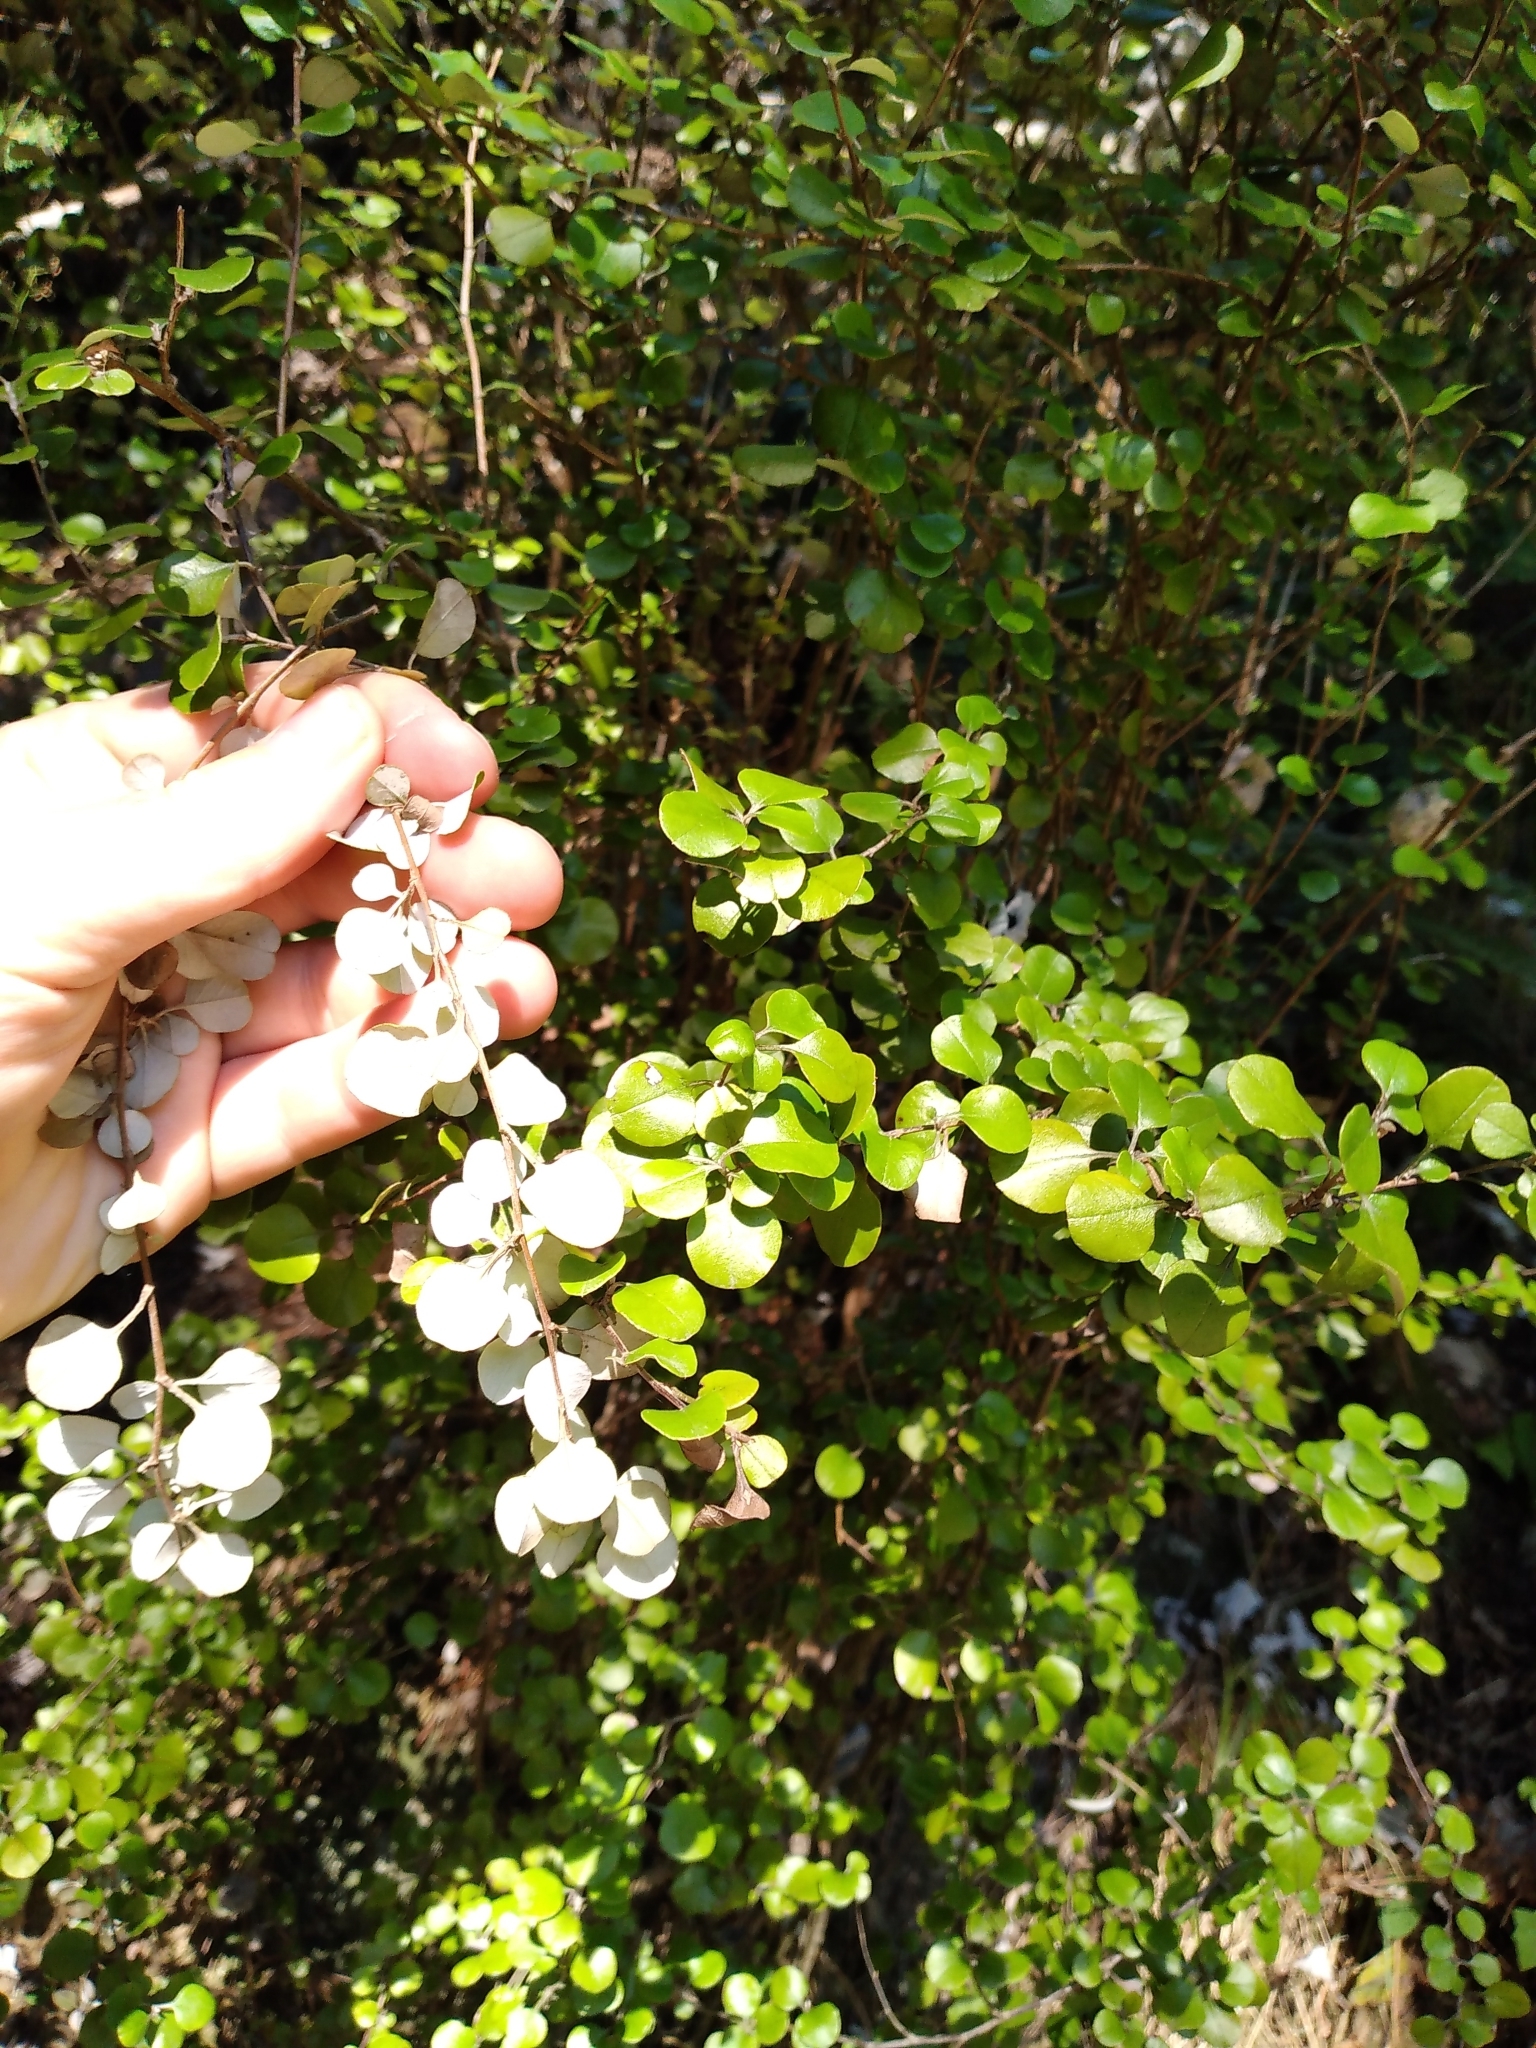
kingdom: Plantae
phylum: Tracheophyta
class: Magnoliopsida
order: Asterales
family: Asteraceae
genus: Ozothamnus
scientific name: Ozothamnus glomeratus
